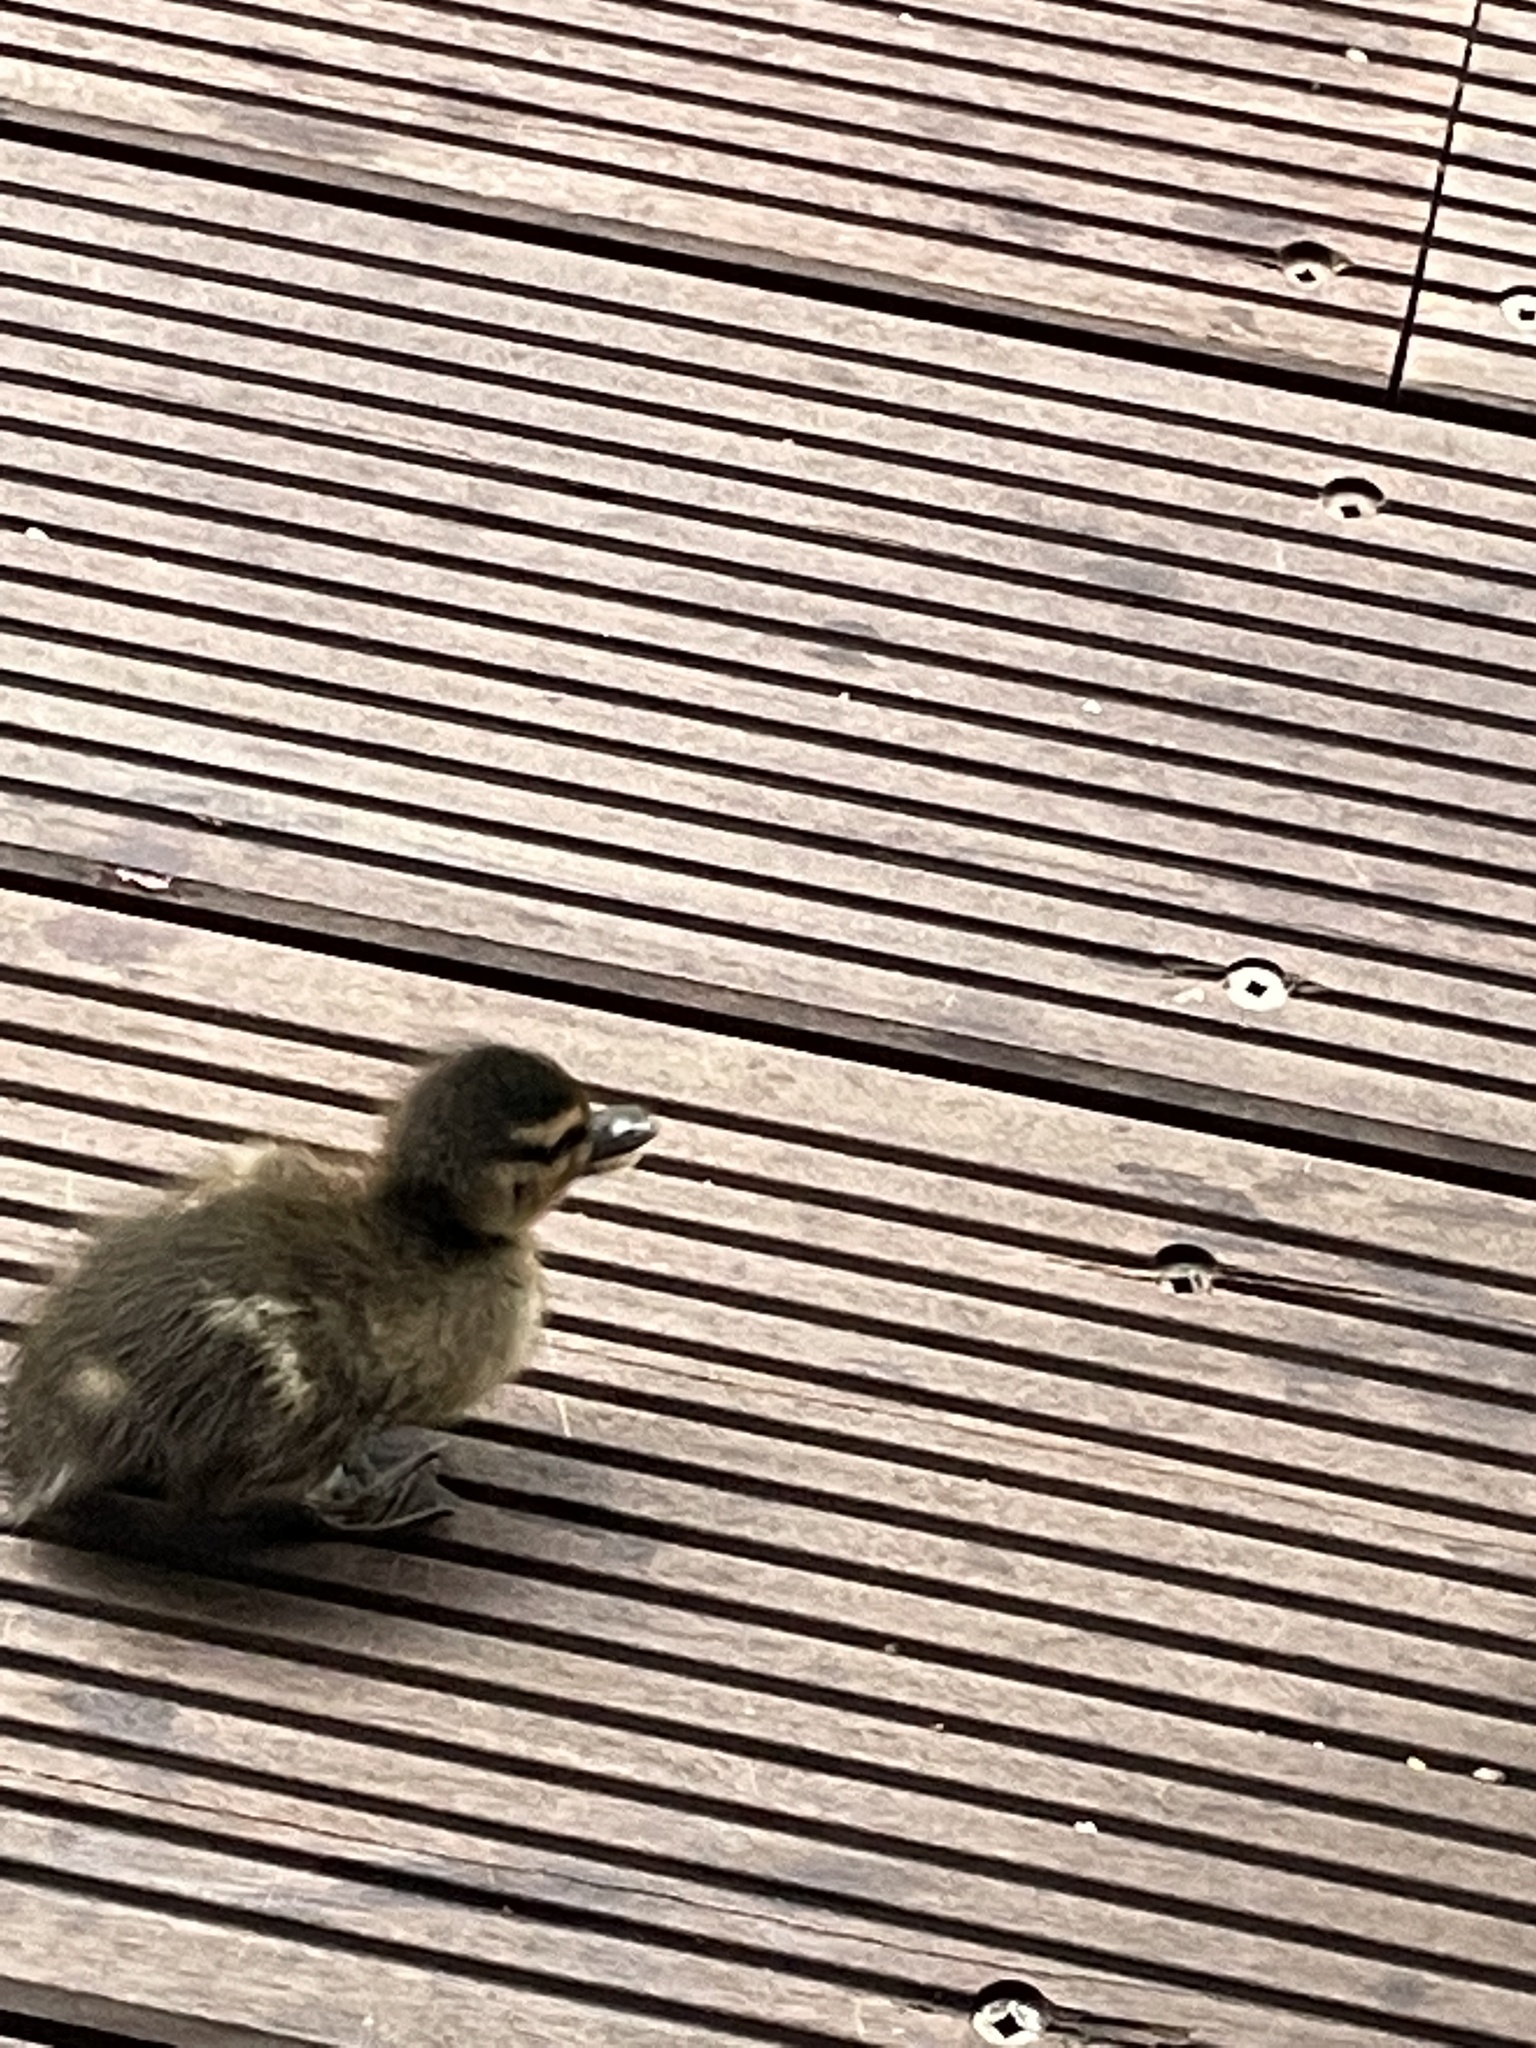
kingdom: Animalia
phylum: Chordata
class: Aves
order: Anseriformes
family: Anatidae
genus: Anas
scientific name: Anas platyrhynchos
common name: Mallard
